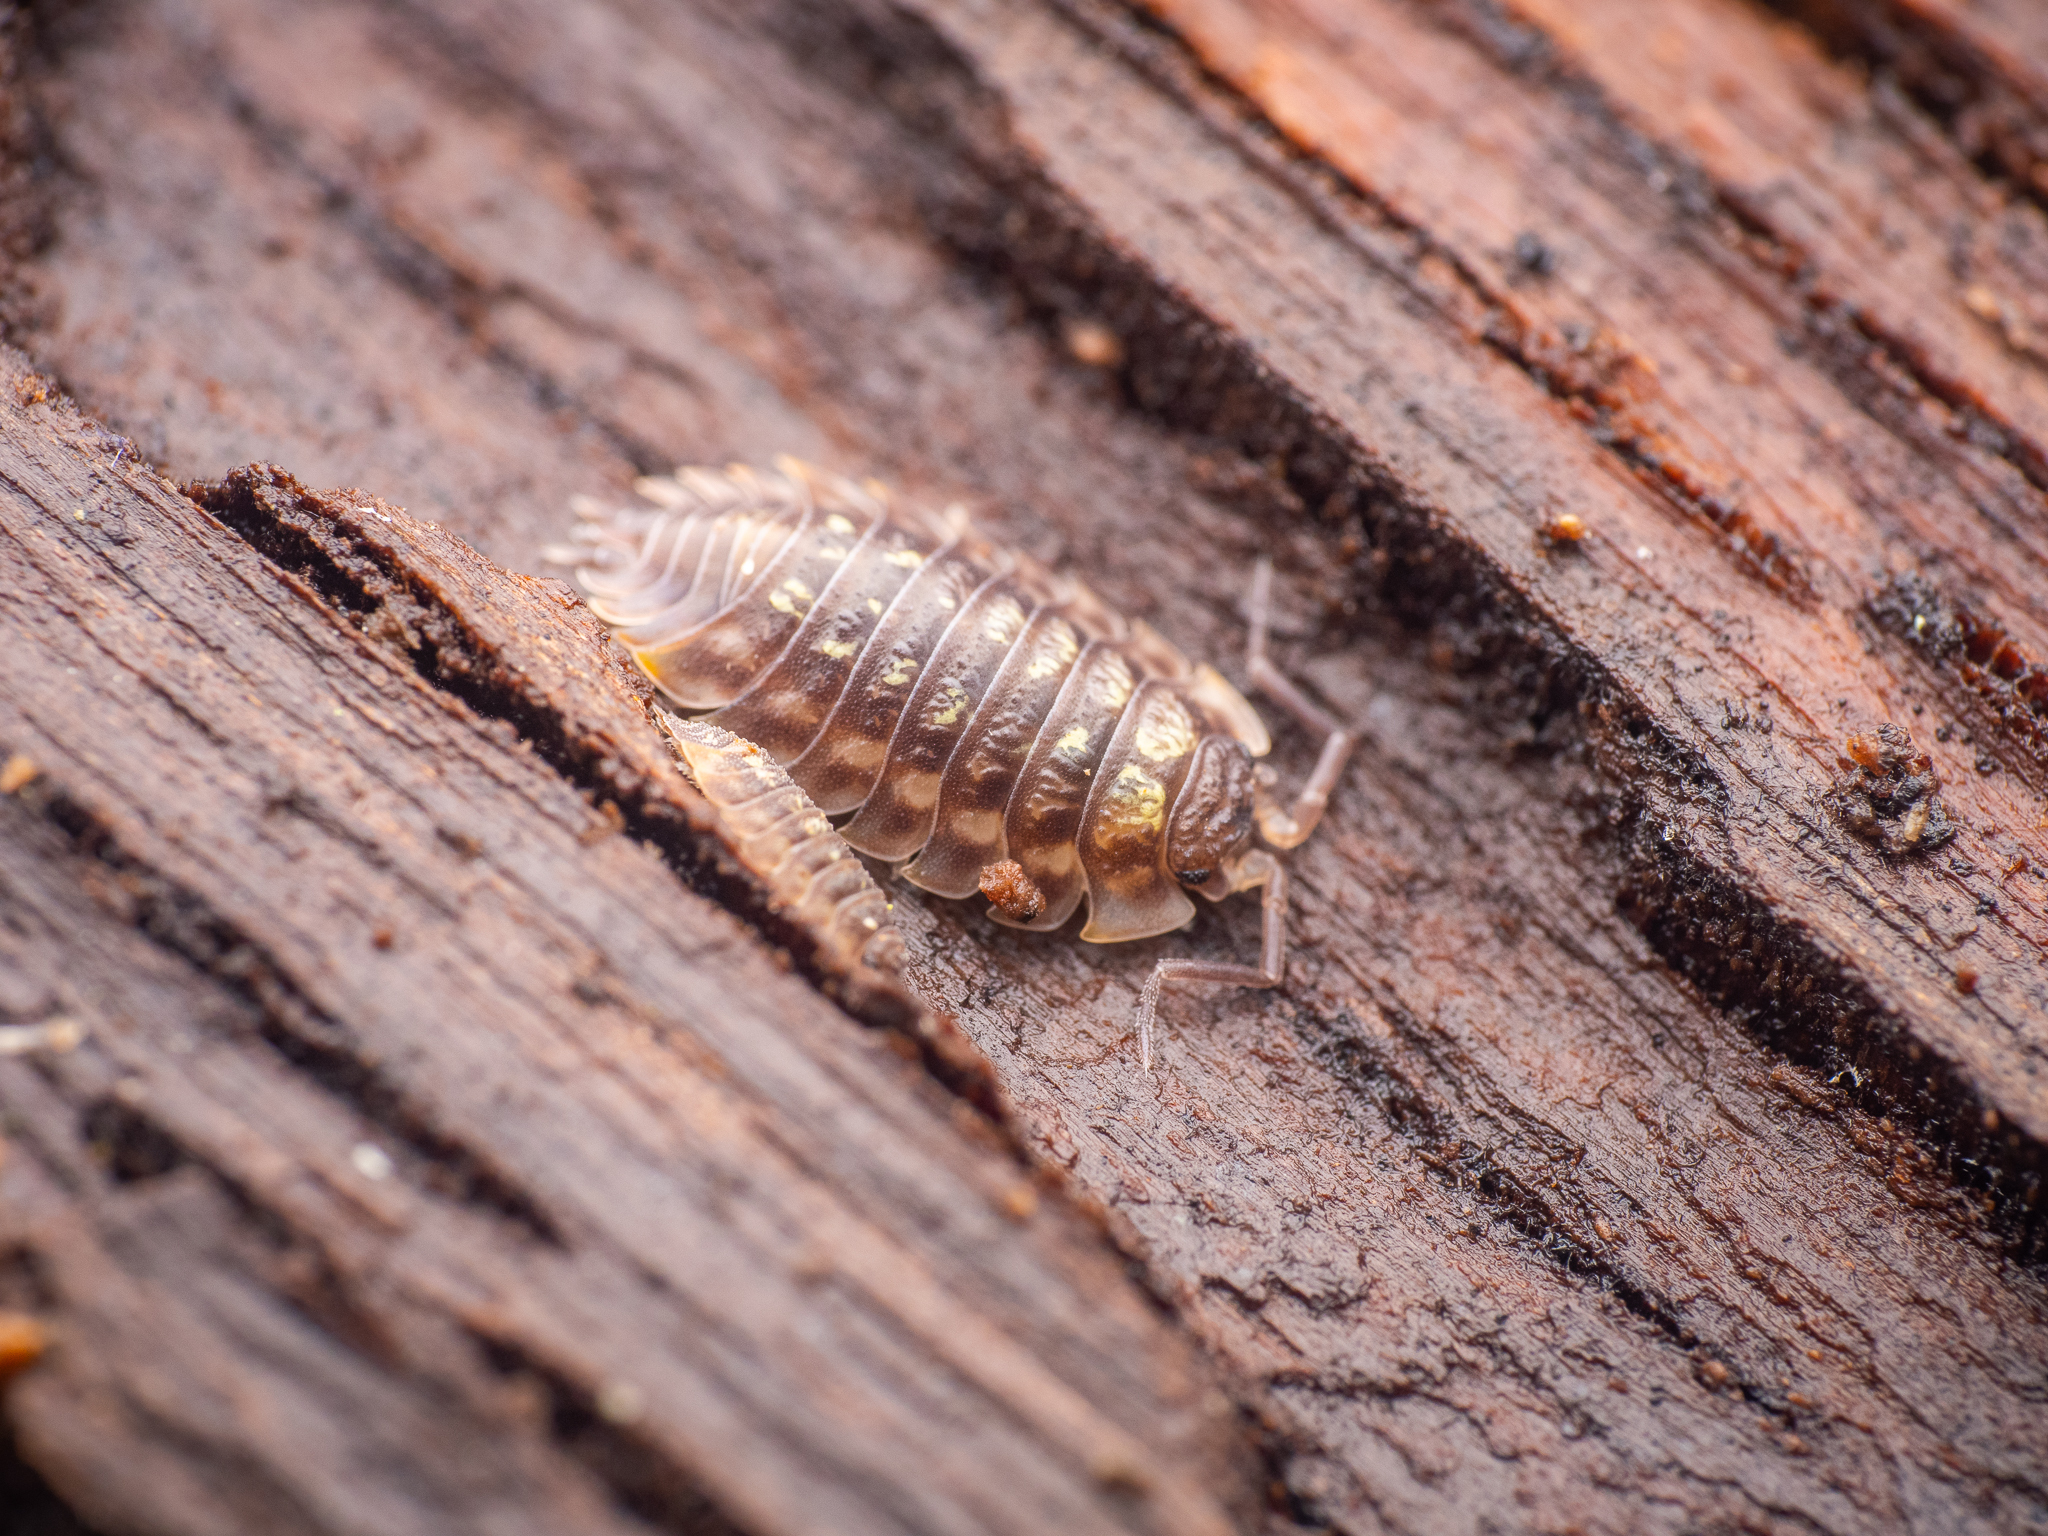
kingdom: Animalia
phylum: Arthropoda
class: Malacostraca
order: Isopoda
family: Oniscidae
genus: Oniscus
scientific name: Oniscus asellus
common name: Common shiny woodlouse
